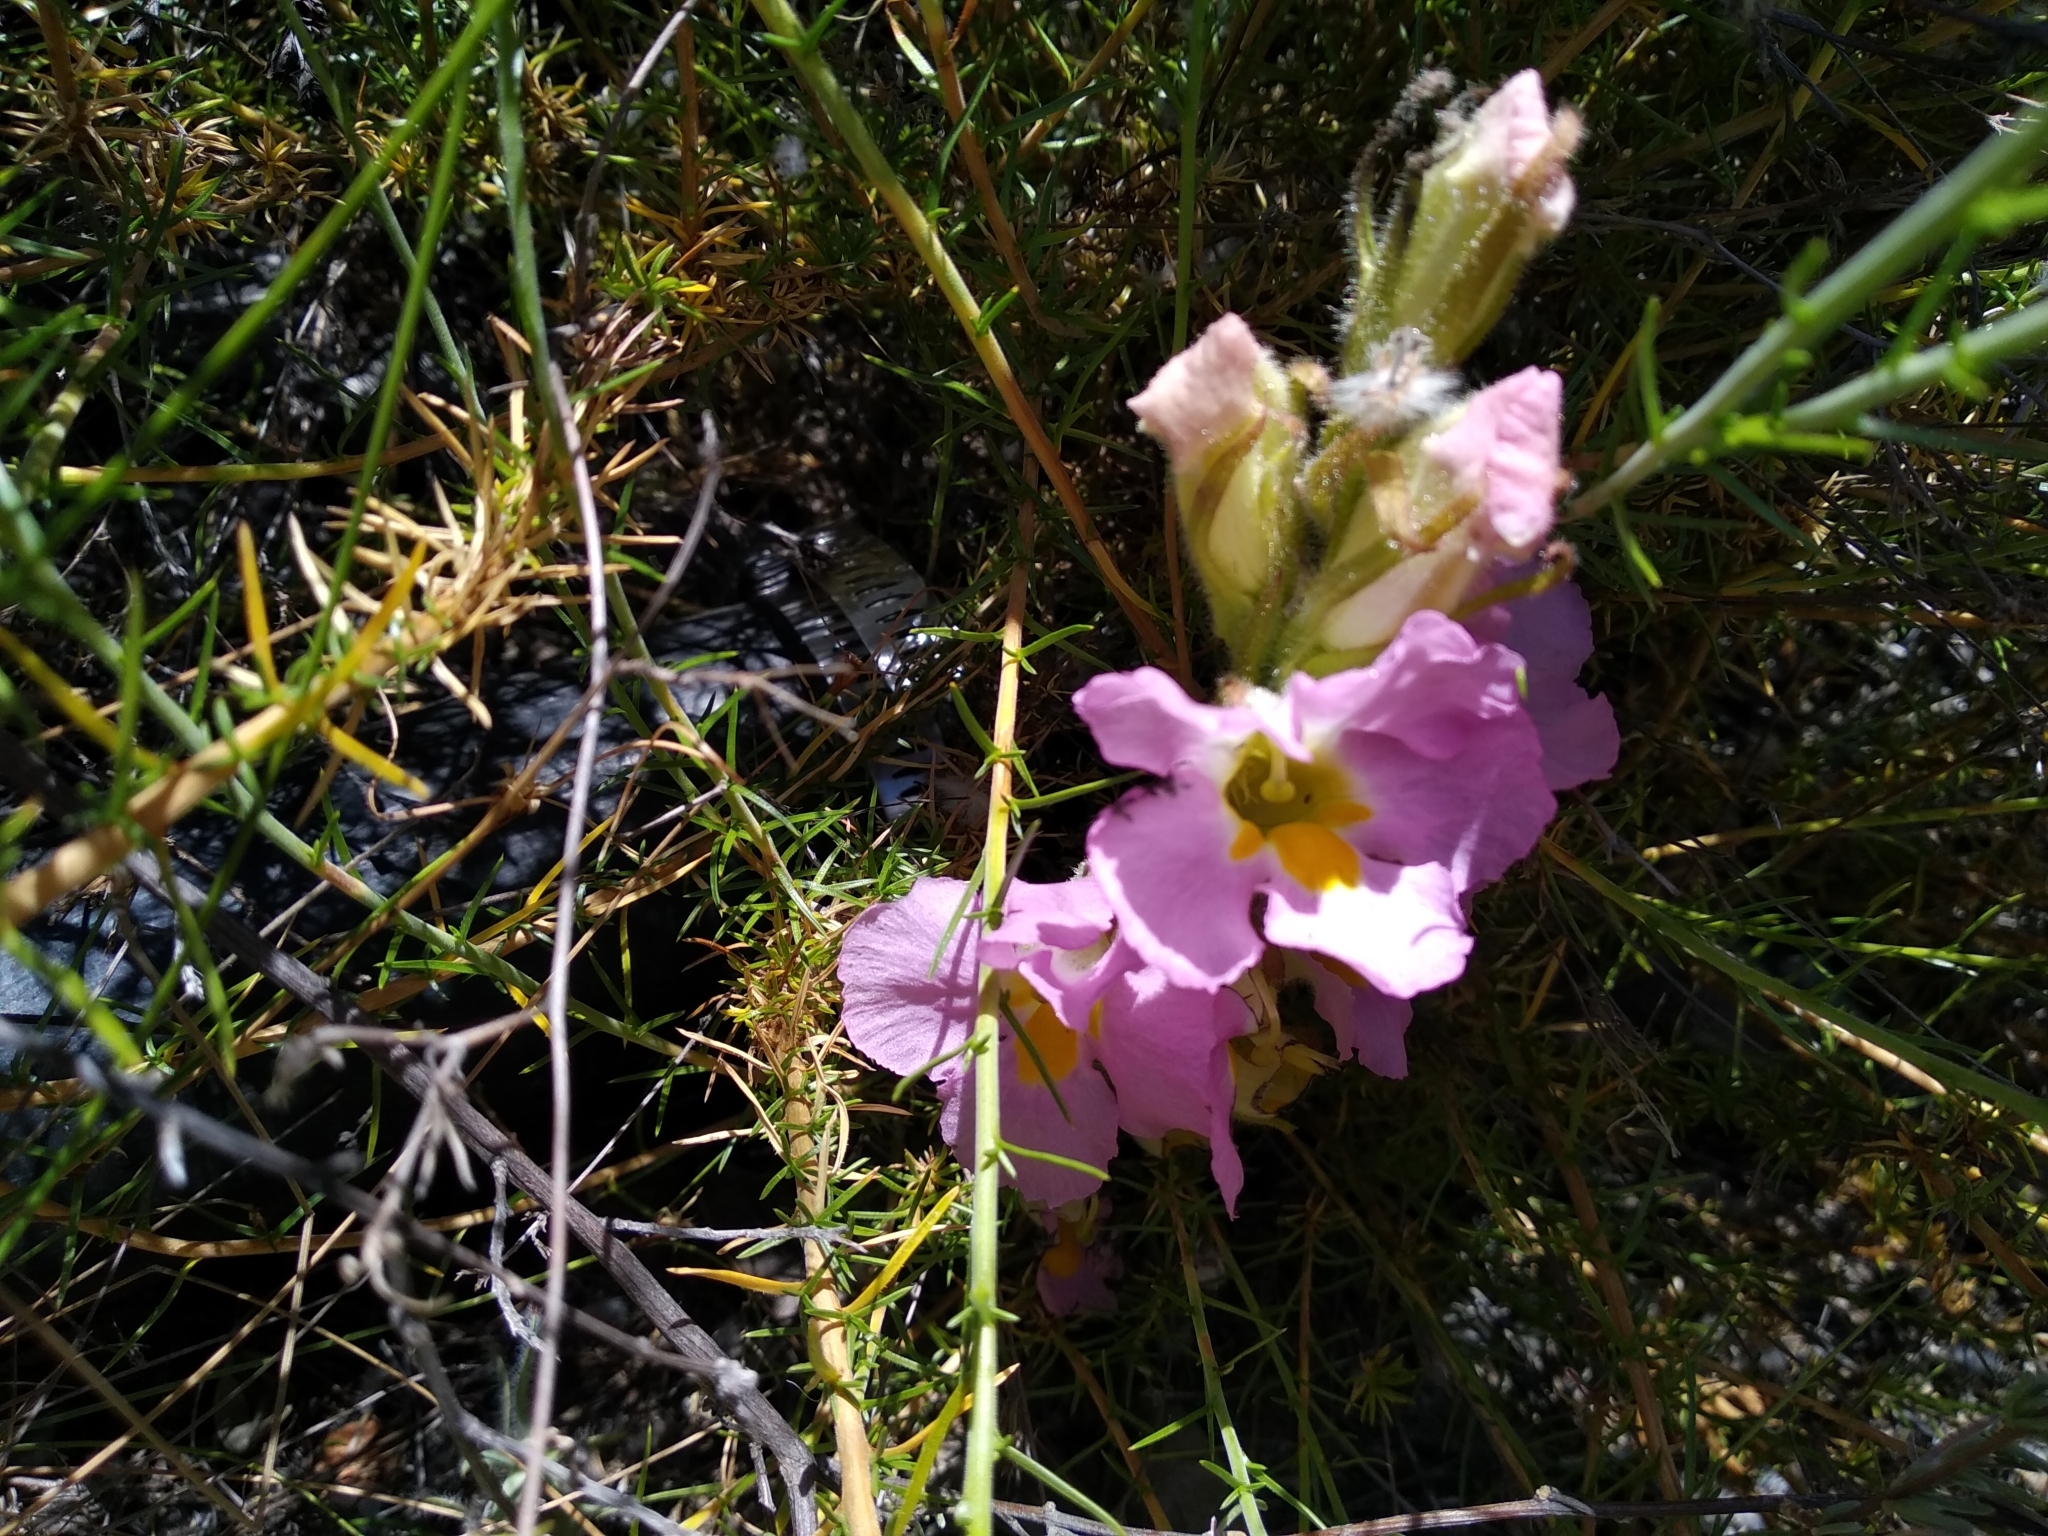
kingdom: Plantae
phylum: Tracheophyta
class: Magnoliopsida
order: Lamiales
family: Orobanchaceae
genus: Harveya
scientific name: Harveya purpurea
